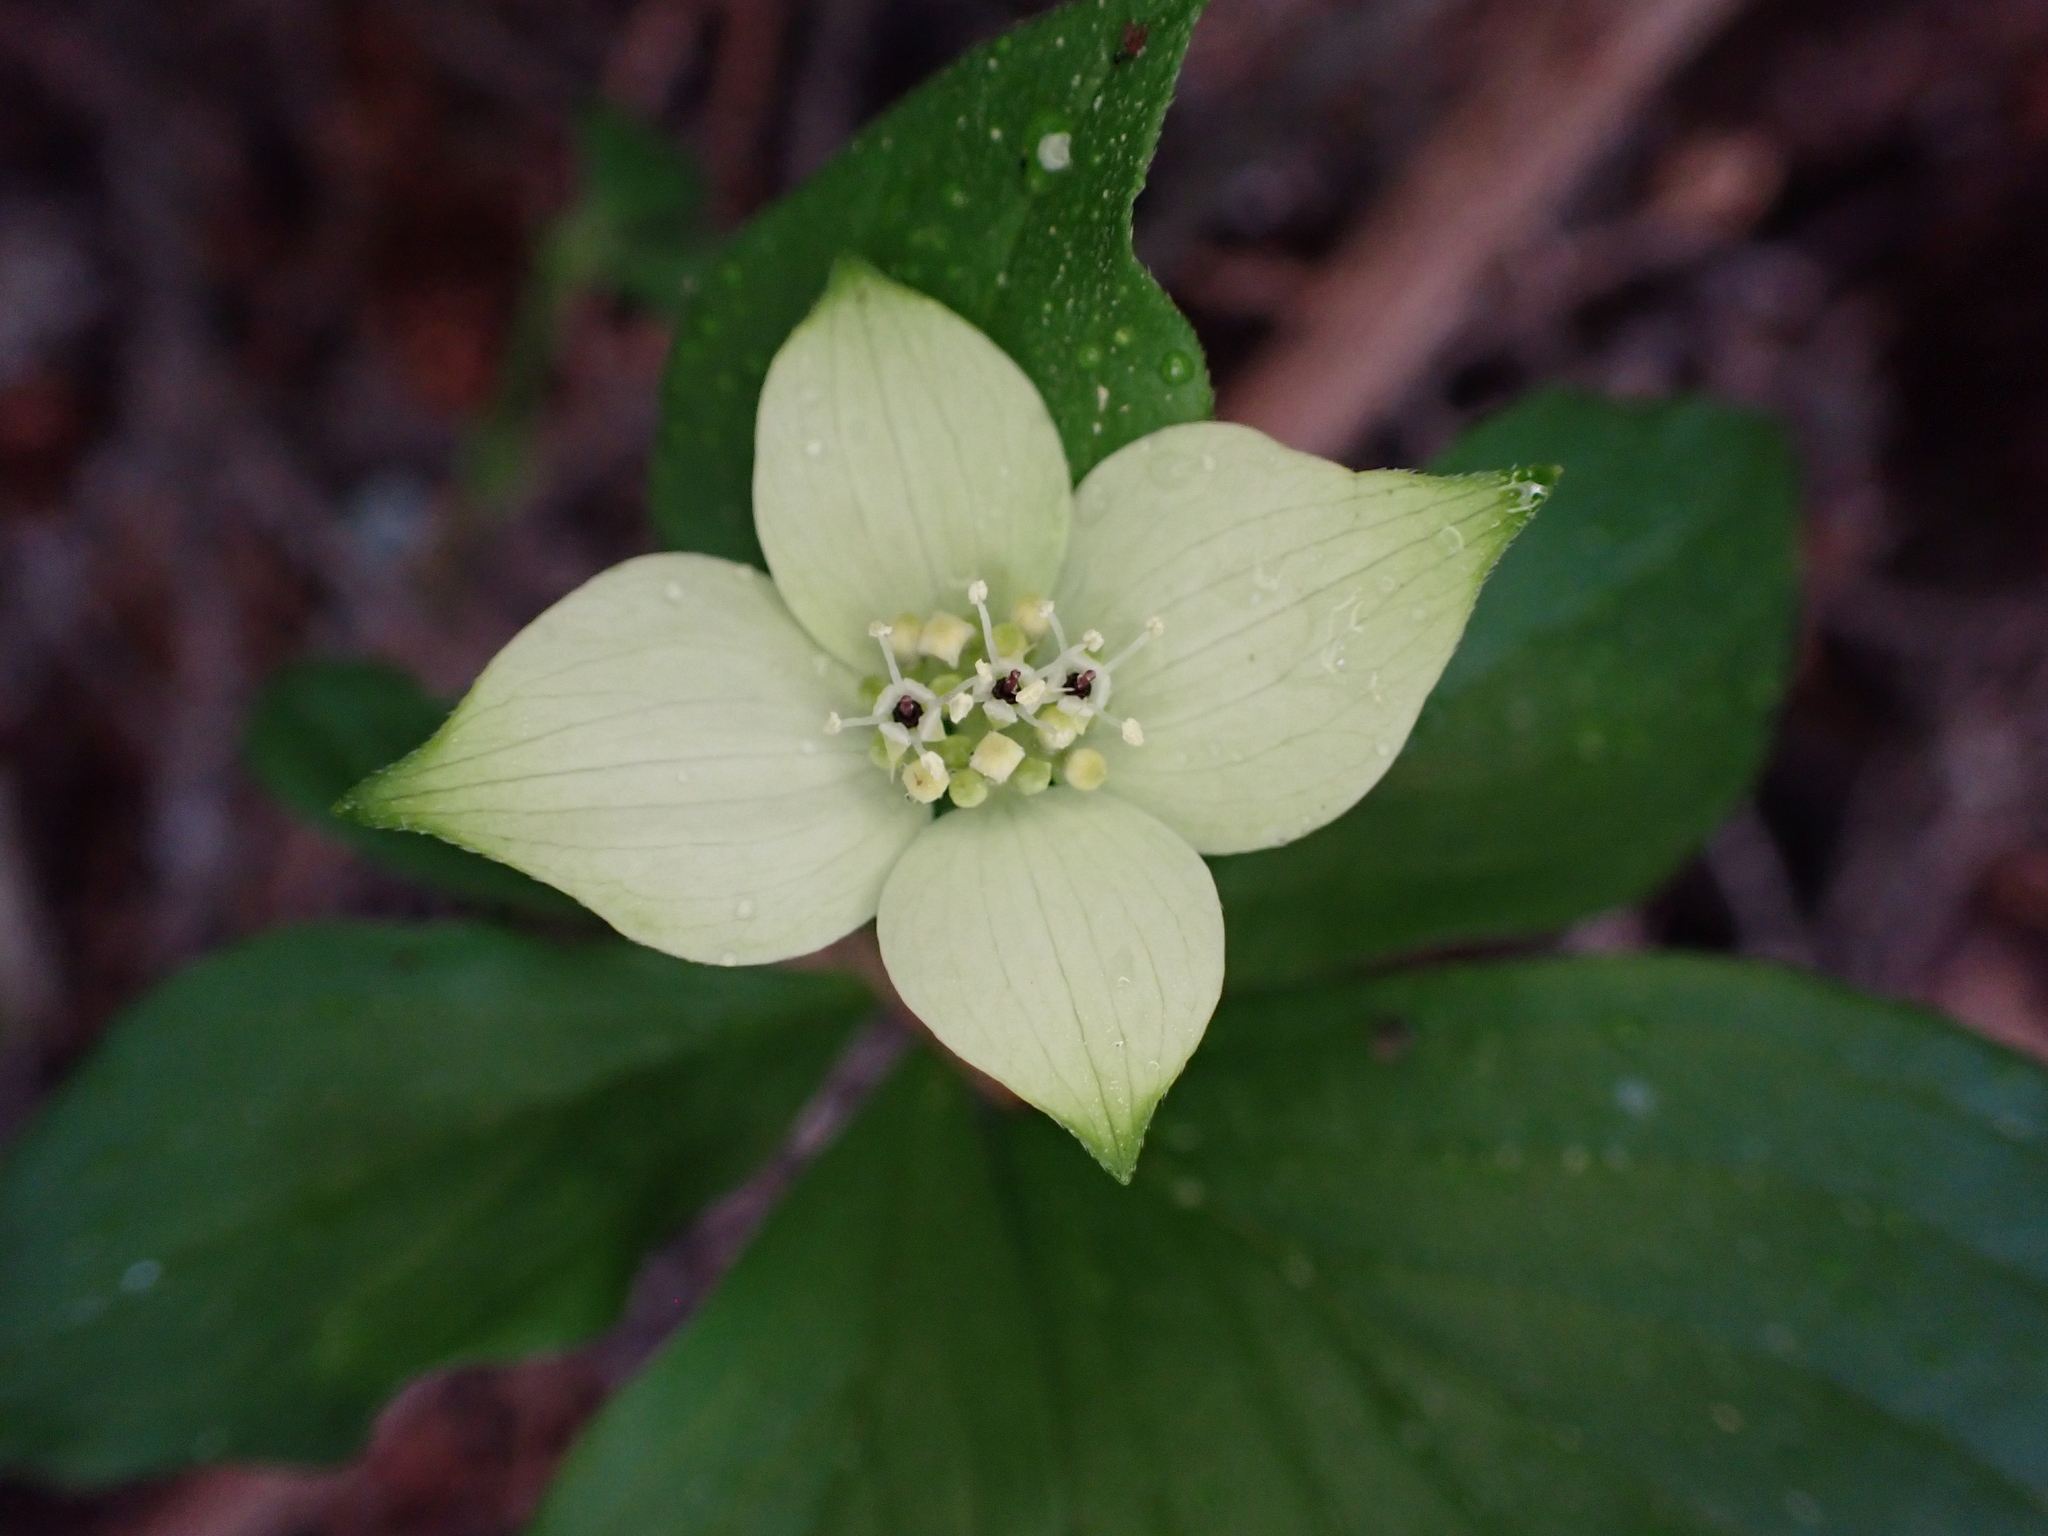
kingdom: Plantae
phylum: Tracheophyta
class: Magnoliopsida
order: Cornales
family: Cornaceae
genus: Cornus
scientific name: Cornus canadensis
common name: Creeping dogwood
